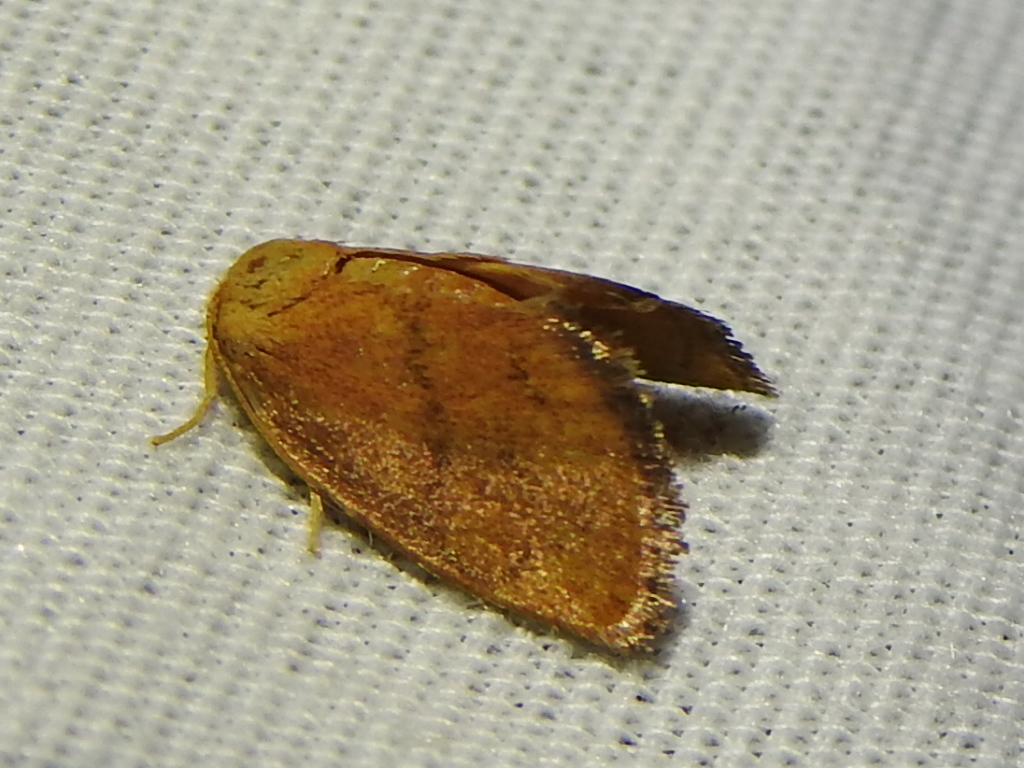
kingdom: Animalia
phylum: Arthropoda
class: Insecta
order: Lepidoptera
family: Limacodidae
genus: Heterogenea
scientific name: Heterogenea shurtleffi
